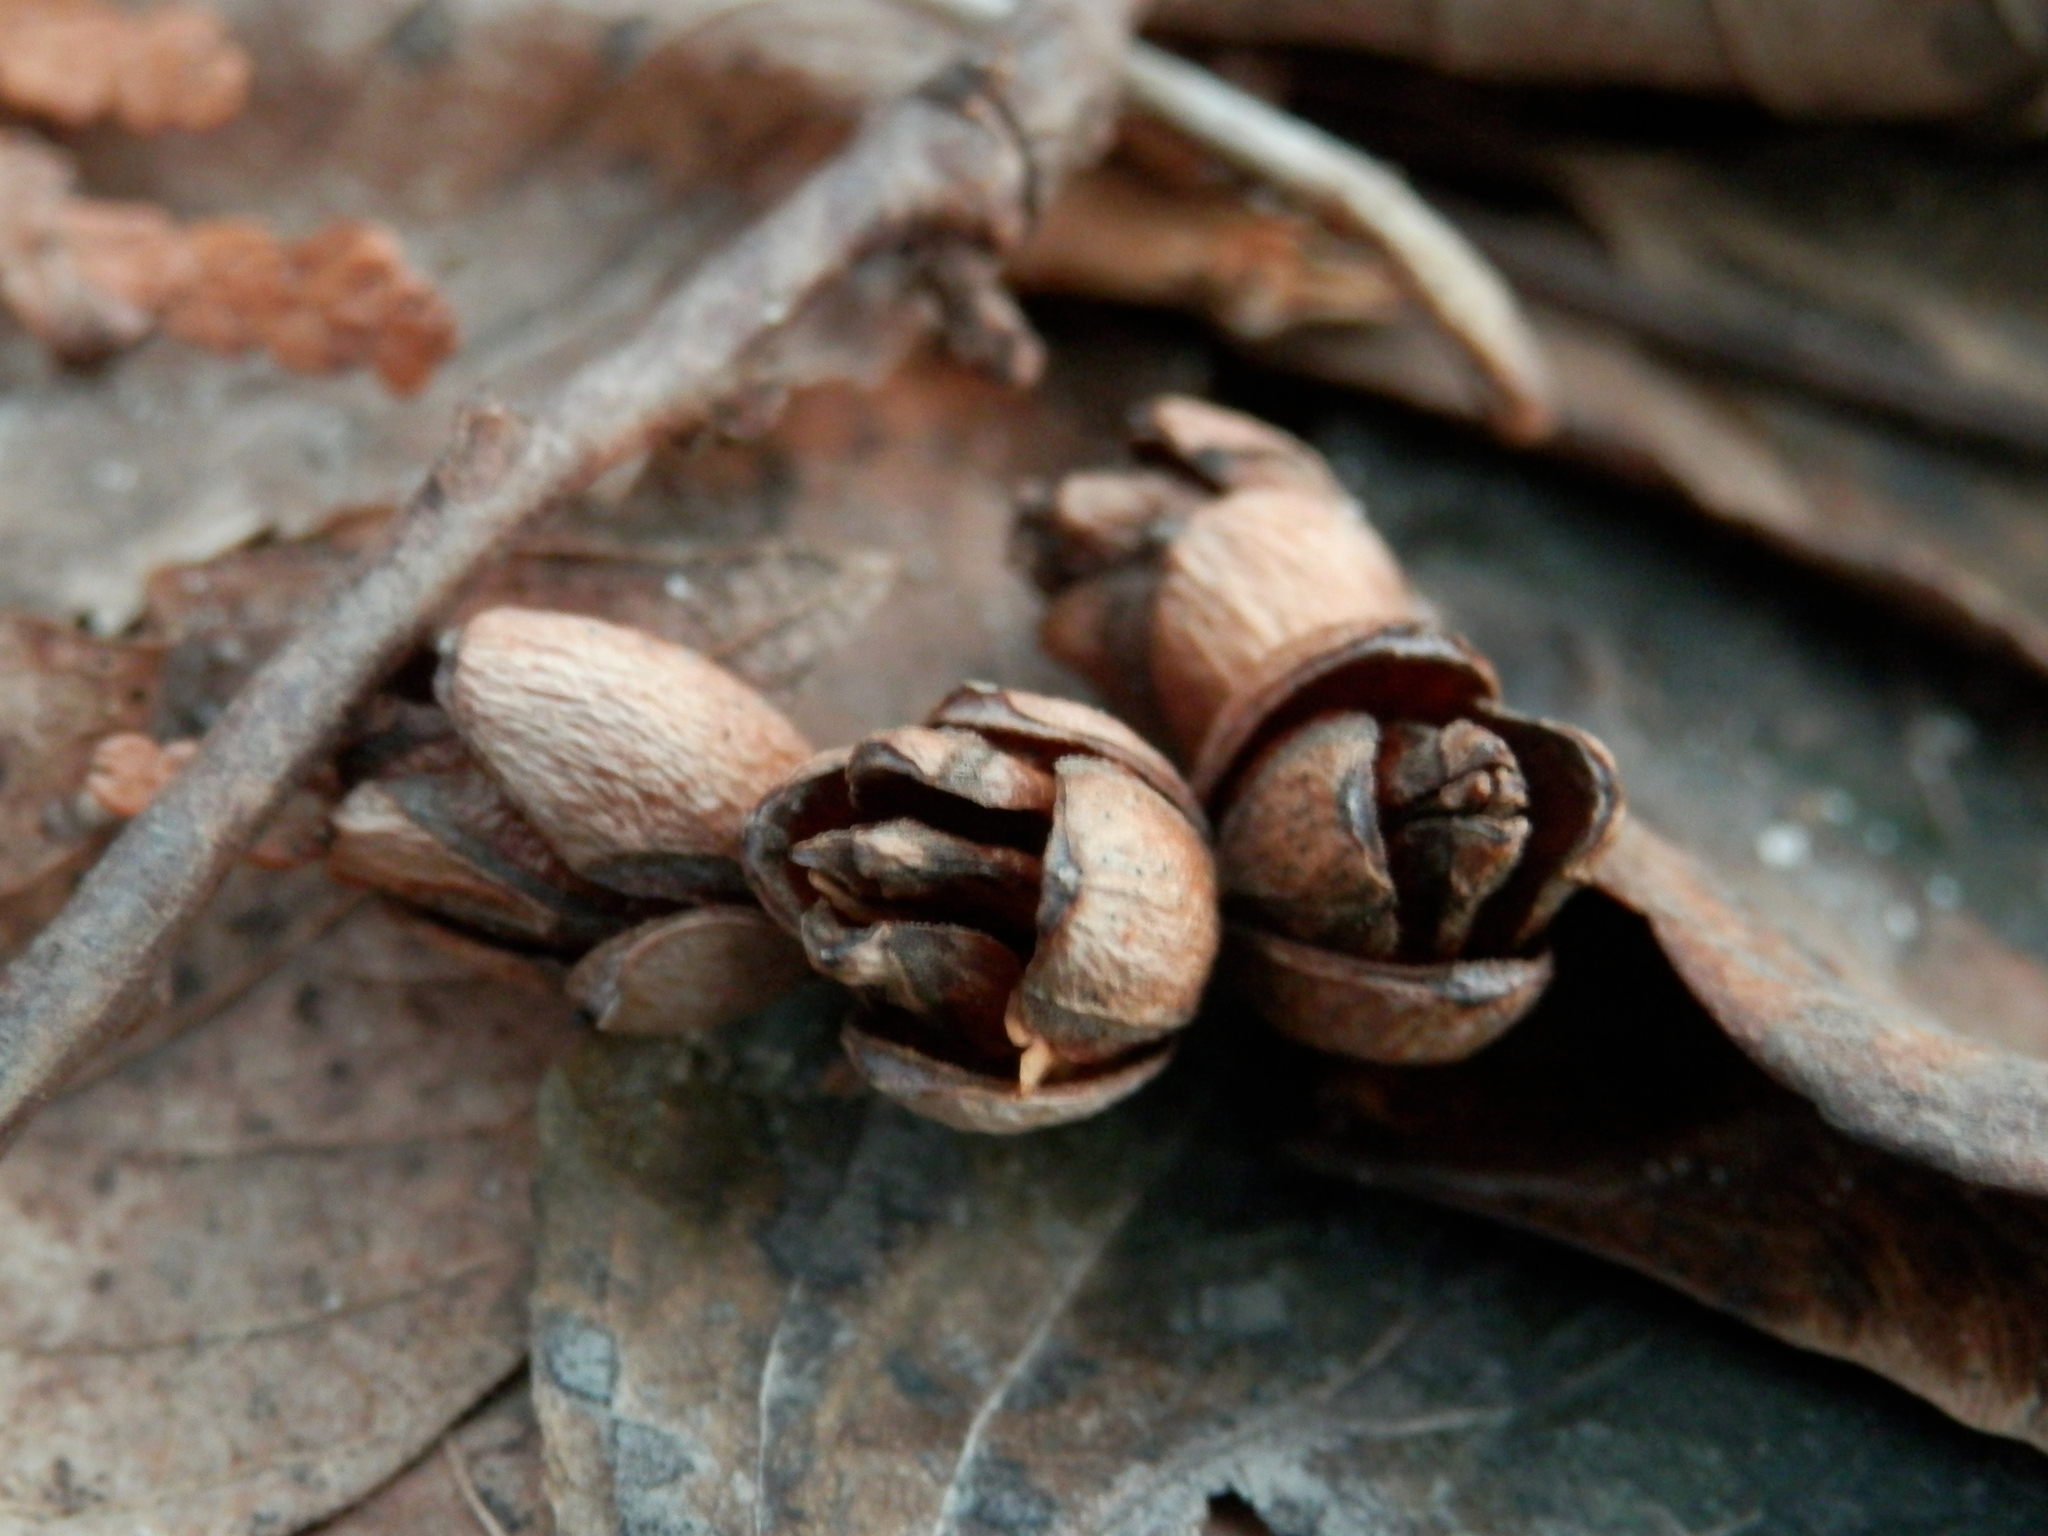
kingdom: Plantae
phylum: Tracheophyta
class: Pinopsida
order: Pinales
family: Cupressaceae
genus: Thuja
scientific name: Thuja occidentalis
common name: Northern white-cedar
